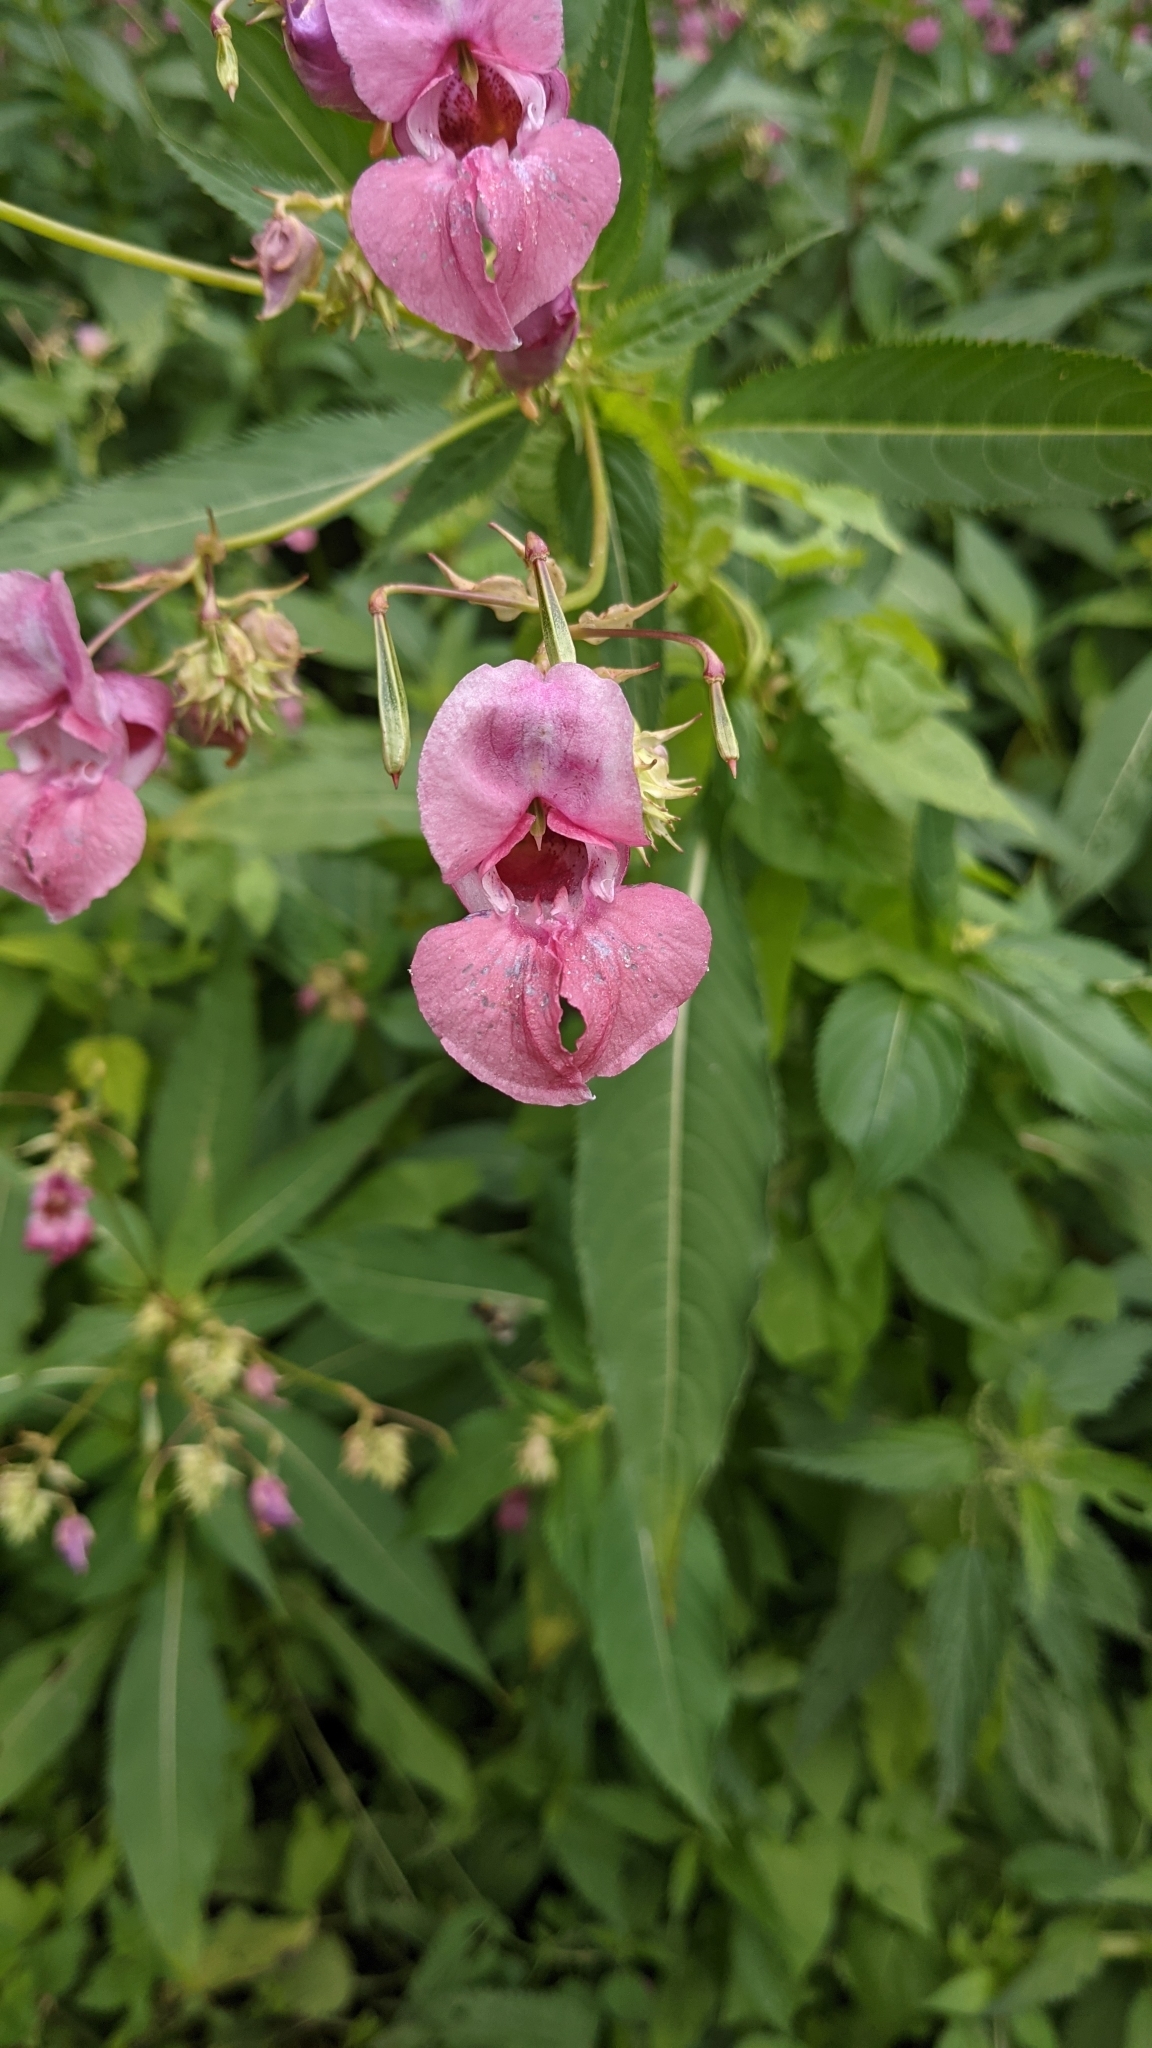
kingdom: Plantae
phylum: Tracheophyta
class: Magnoliopsida
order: Ericales
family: Balsaminaceae
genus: Impatiens
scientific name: Impatiens glandulifera
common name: Himalayan balsam
